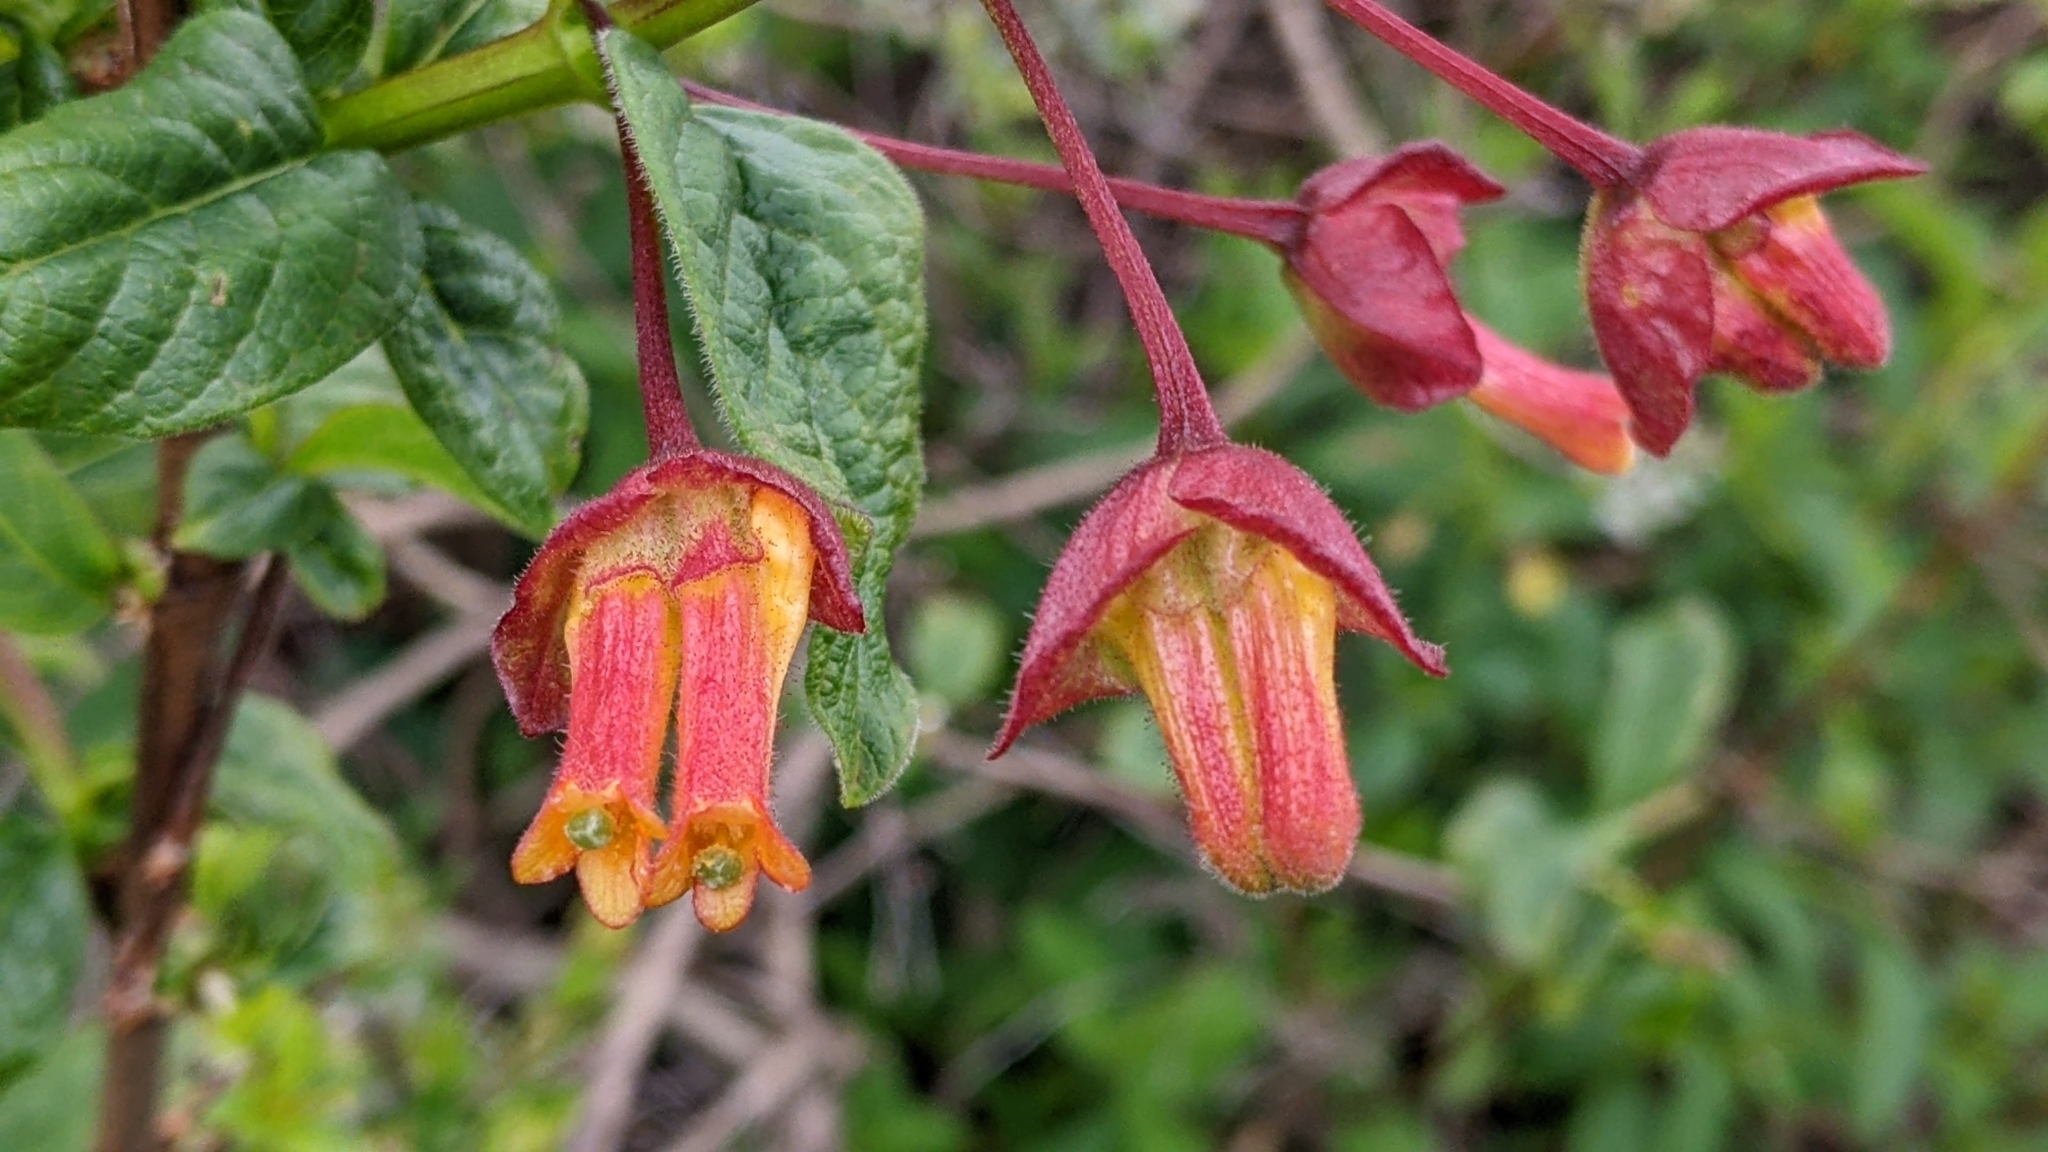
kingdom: Plantae
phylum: Tracheophyta
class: Magnoliopsida
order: Dipsacales
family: Caprifoliaceae
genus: Lonicera
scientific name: Lonicera involucrata
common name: Californian honeysuckle
